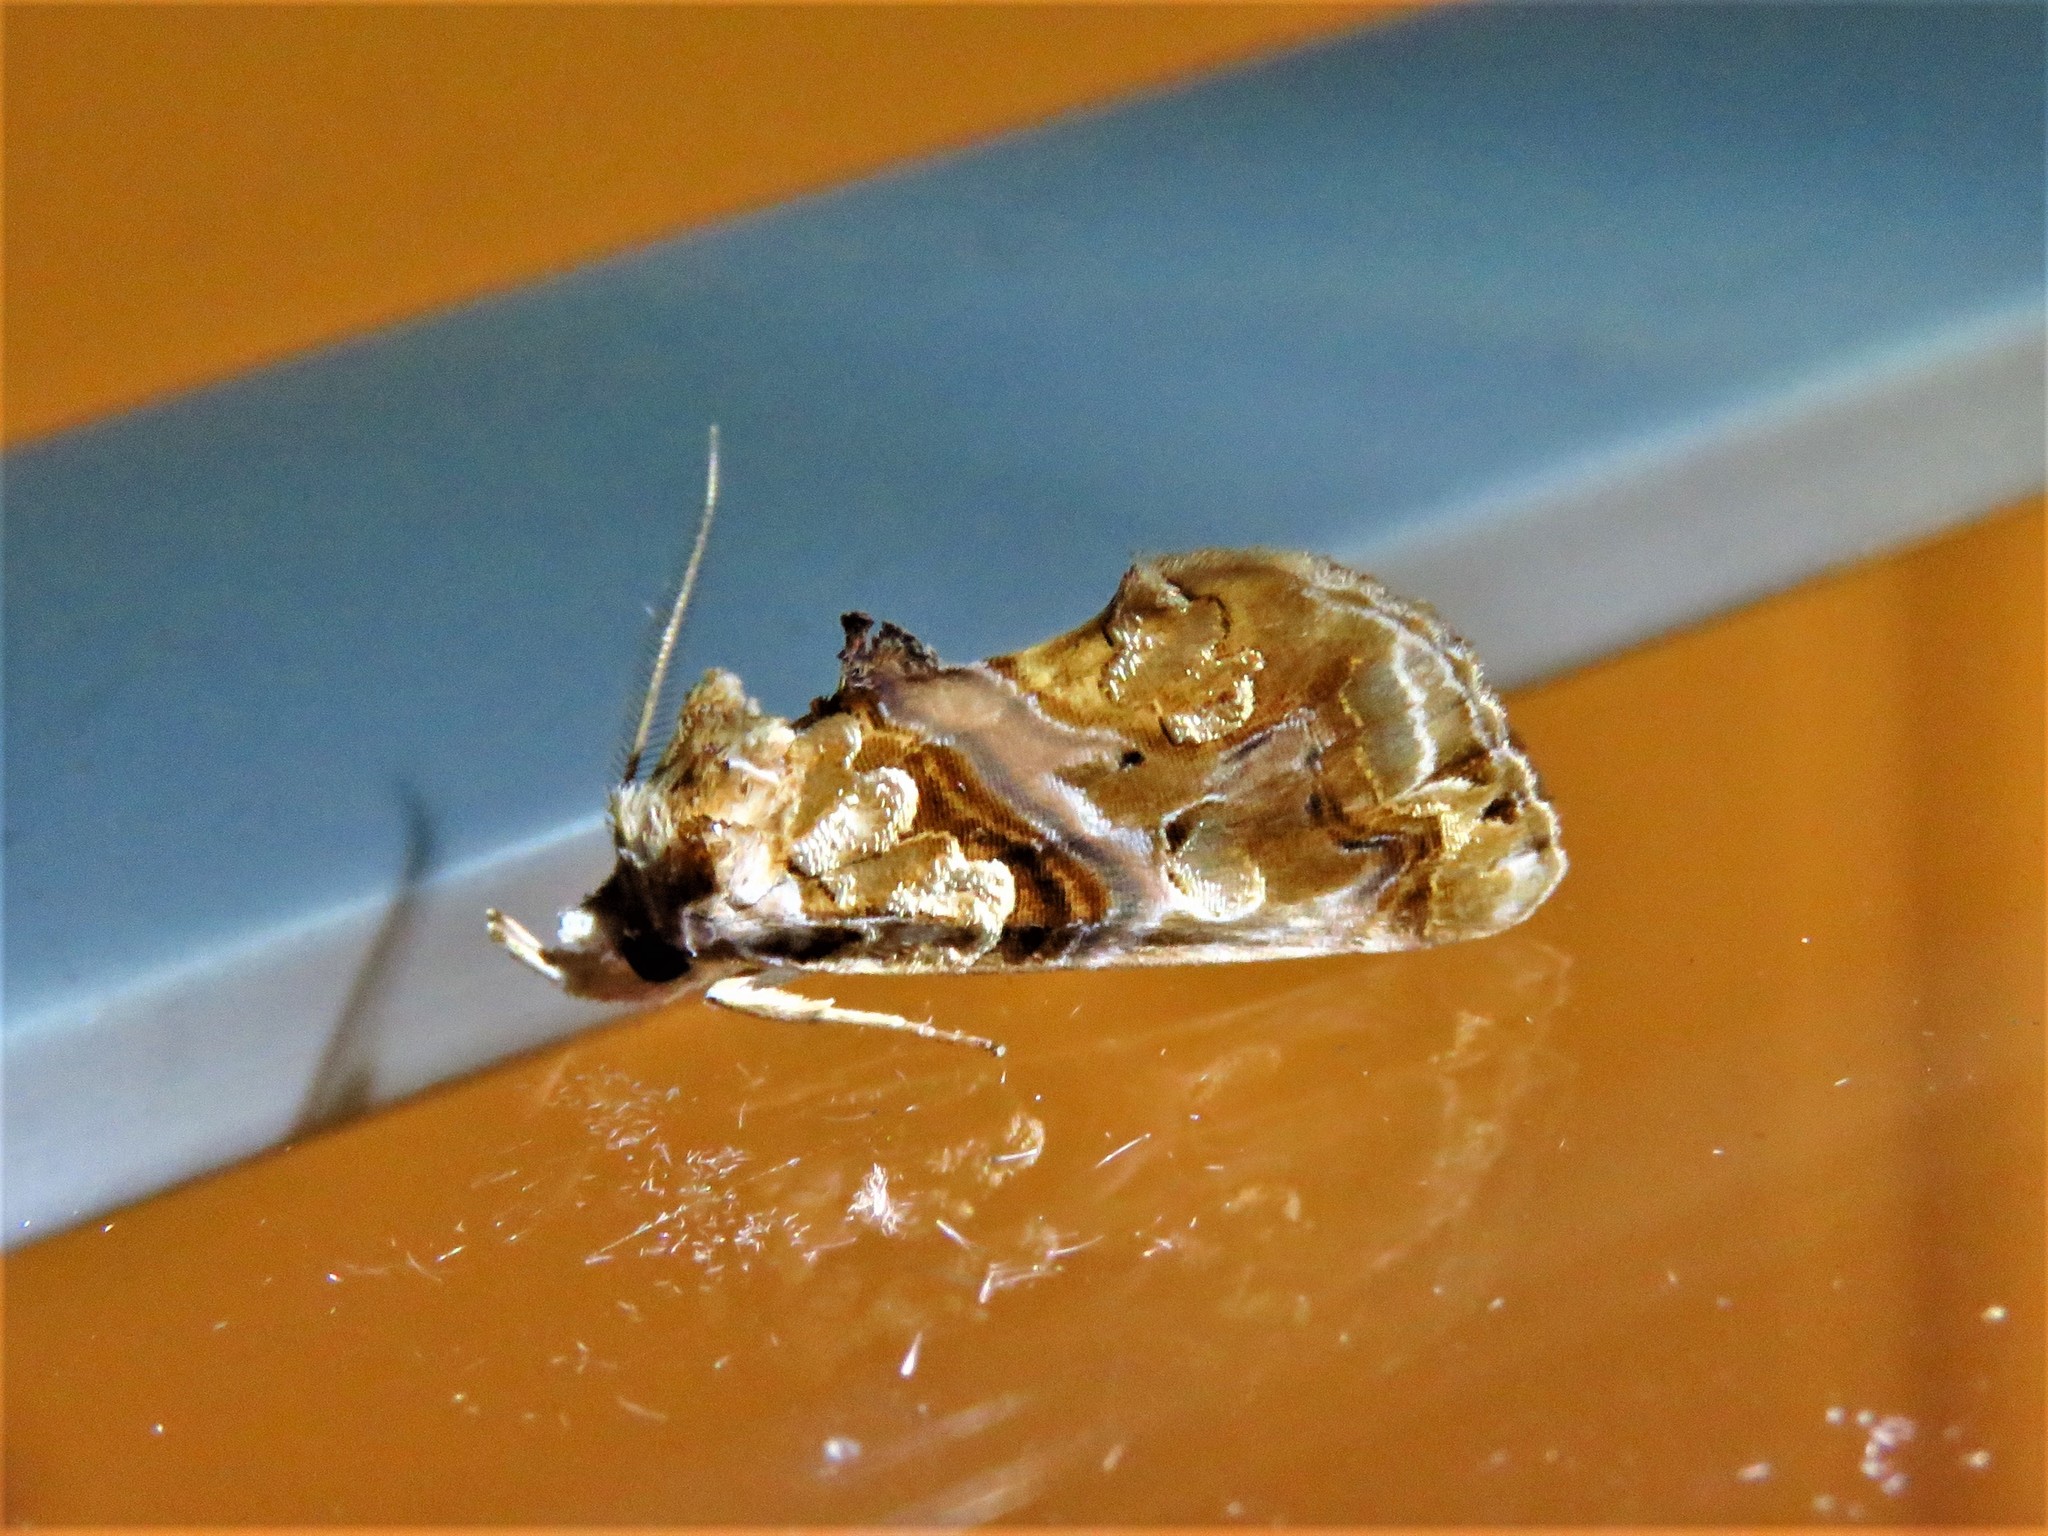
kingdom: Animalia
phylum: Arthropoda
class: Insecta
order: Lepidoptera
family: Erebidae
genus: Plusiodonta
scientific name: Plusiodonta compressipalpis
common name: Moonseed moth
